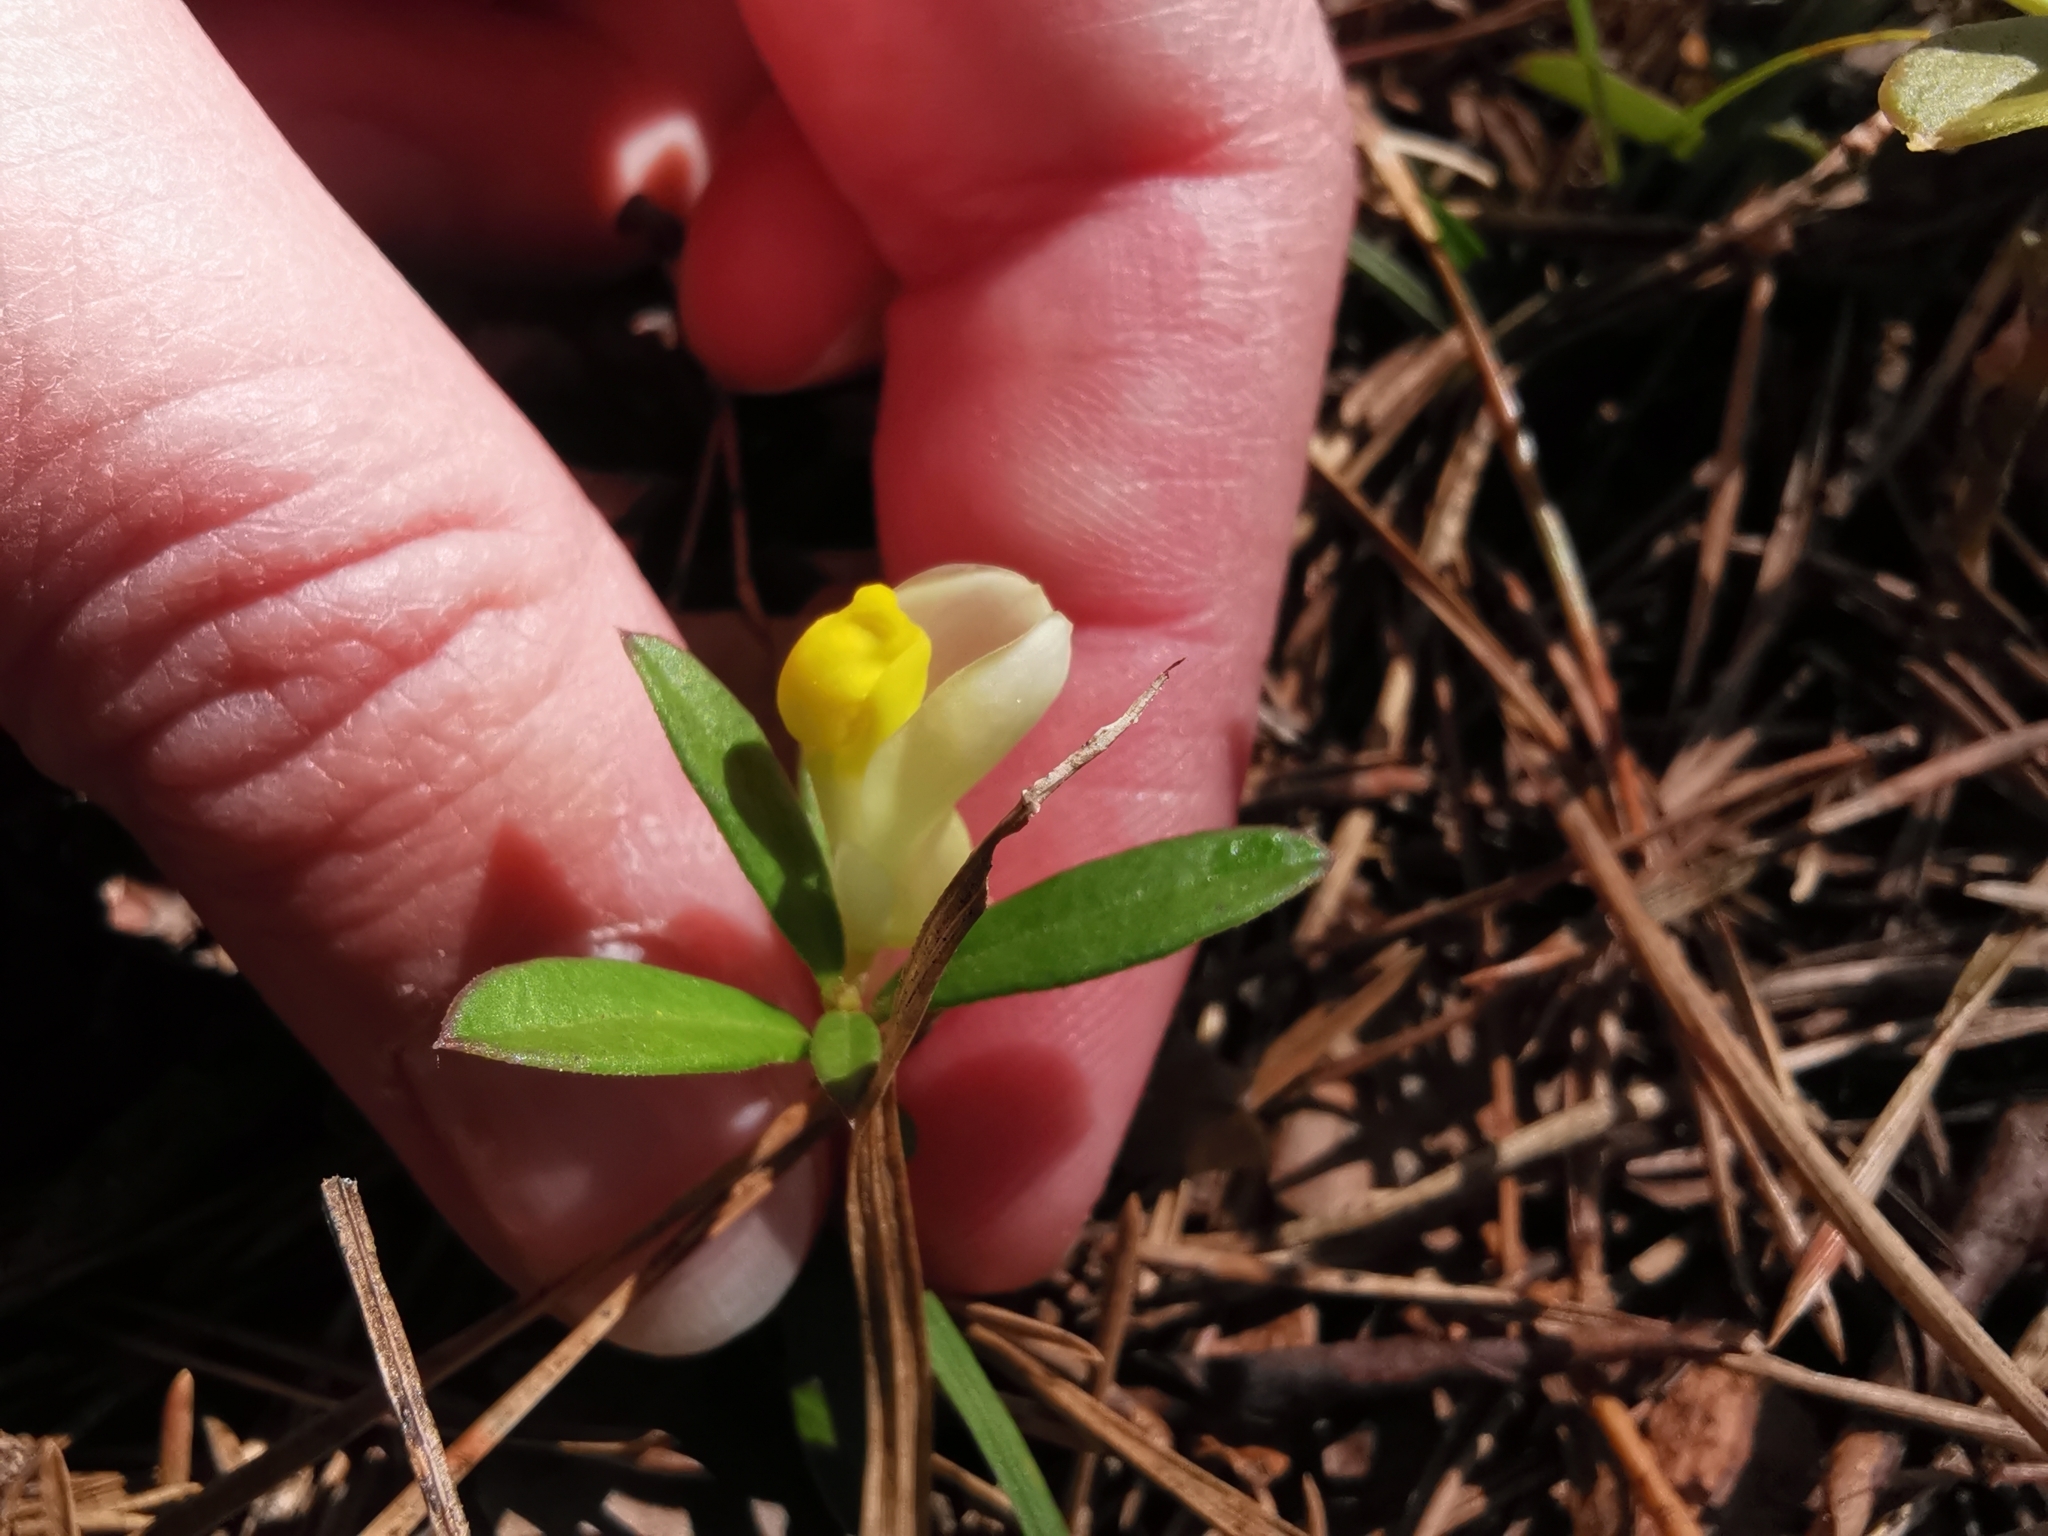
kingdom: Plantae
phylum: Tracheophyta
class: Magnoliopsida
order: Fabales
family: Polygalaceae
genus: Polygaloides
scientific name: Polygaloides chamaebuxus
